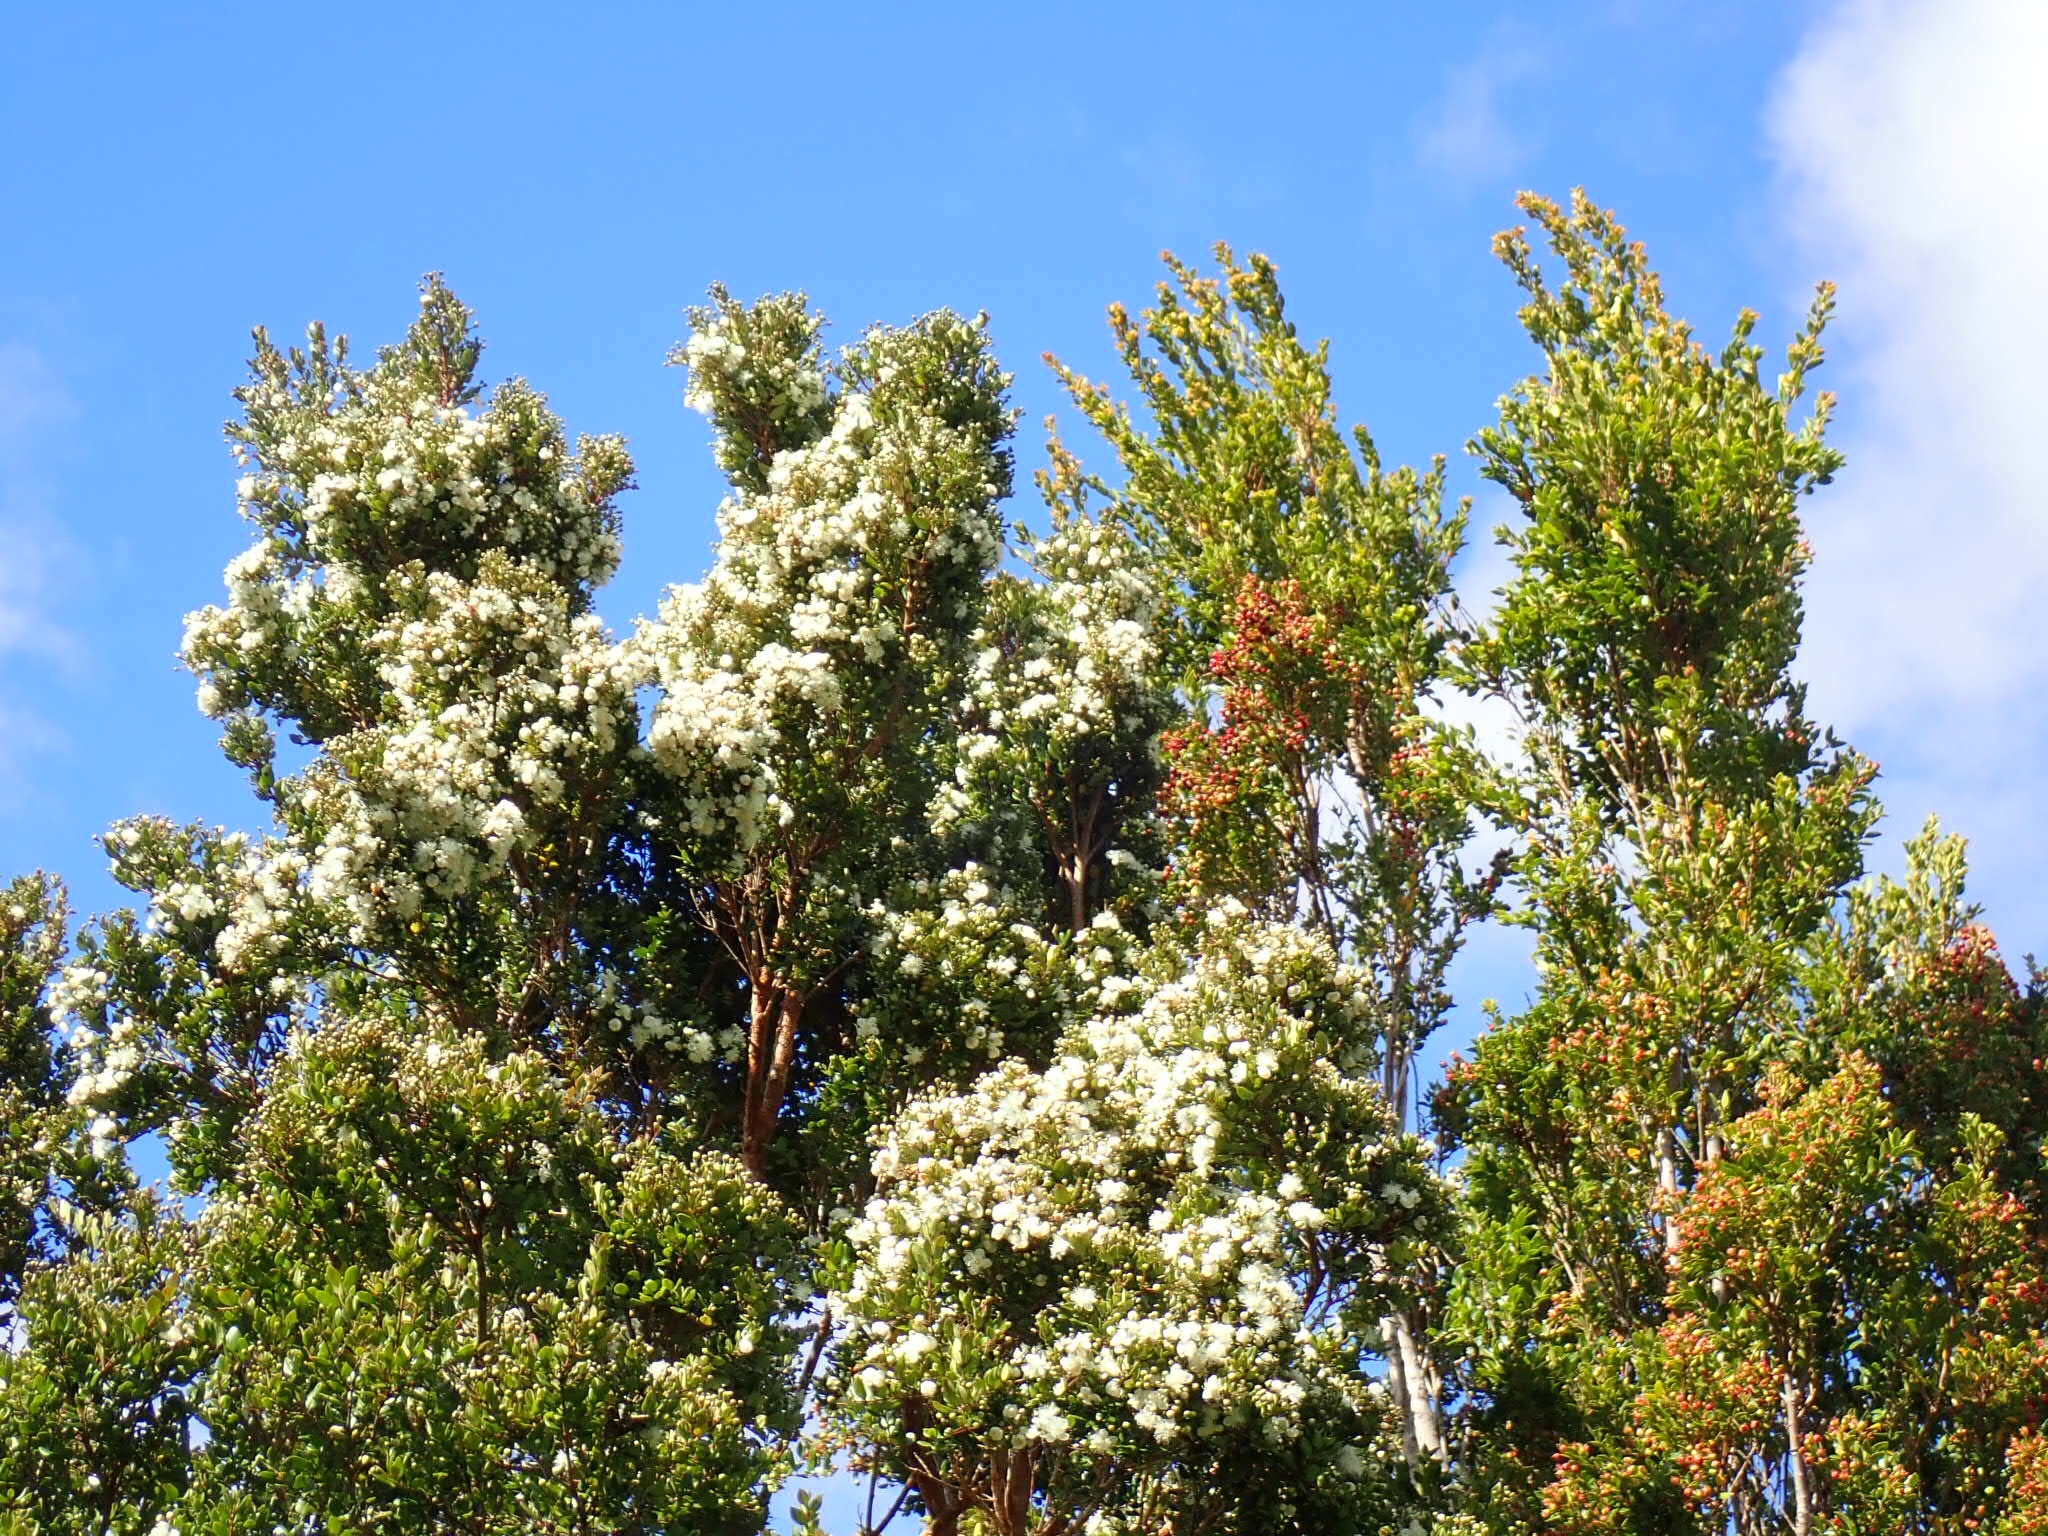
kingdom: Plantae
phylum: Tracheophyta
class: Magnoliopsida
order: Myrtales
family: Myrtaceae
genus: Luma
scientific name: Luma apiculata
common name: Chilean myrtle
